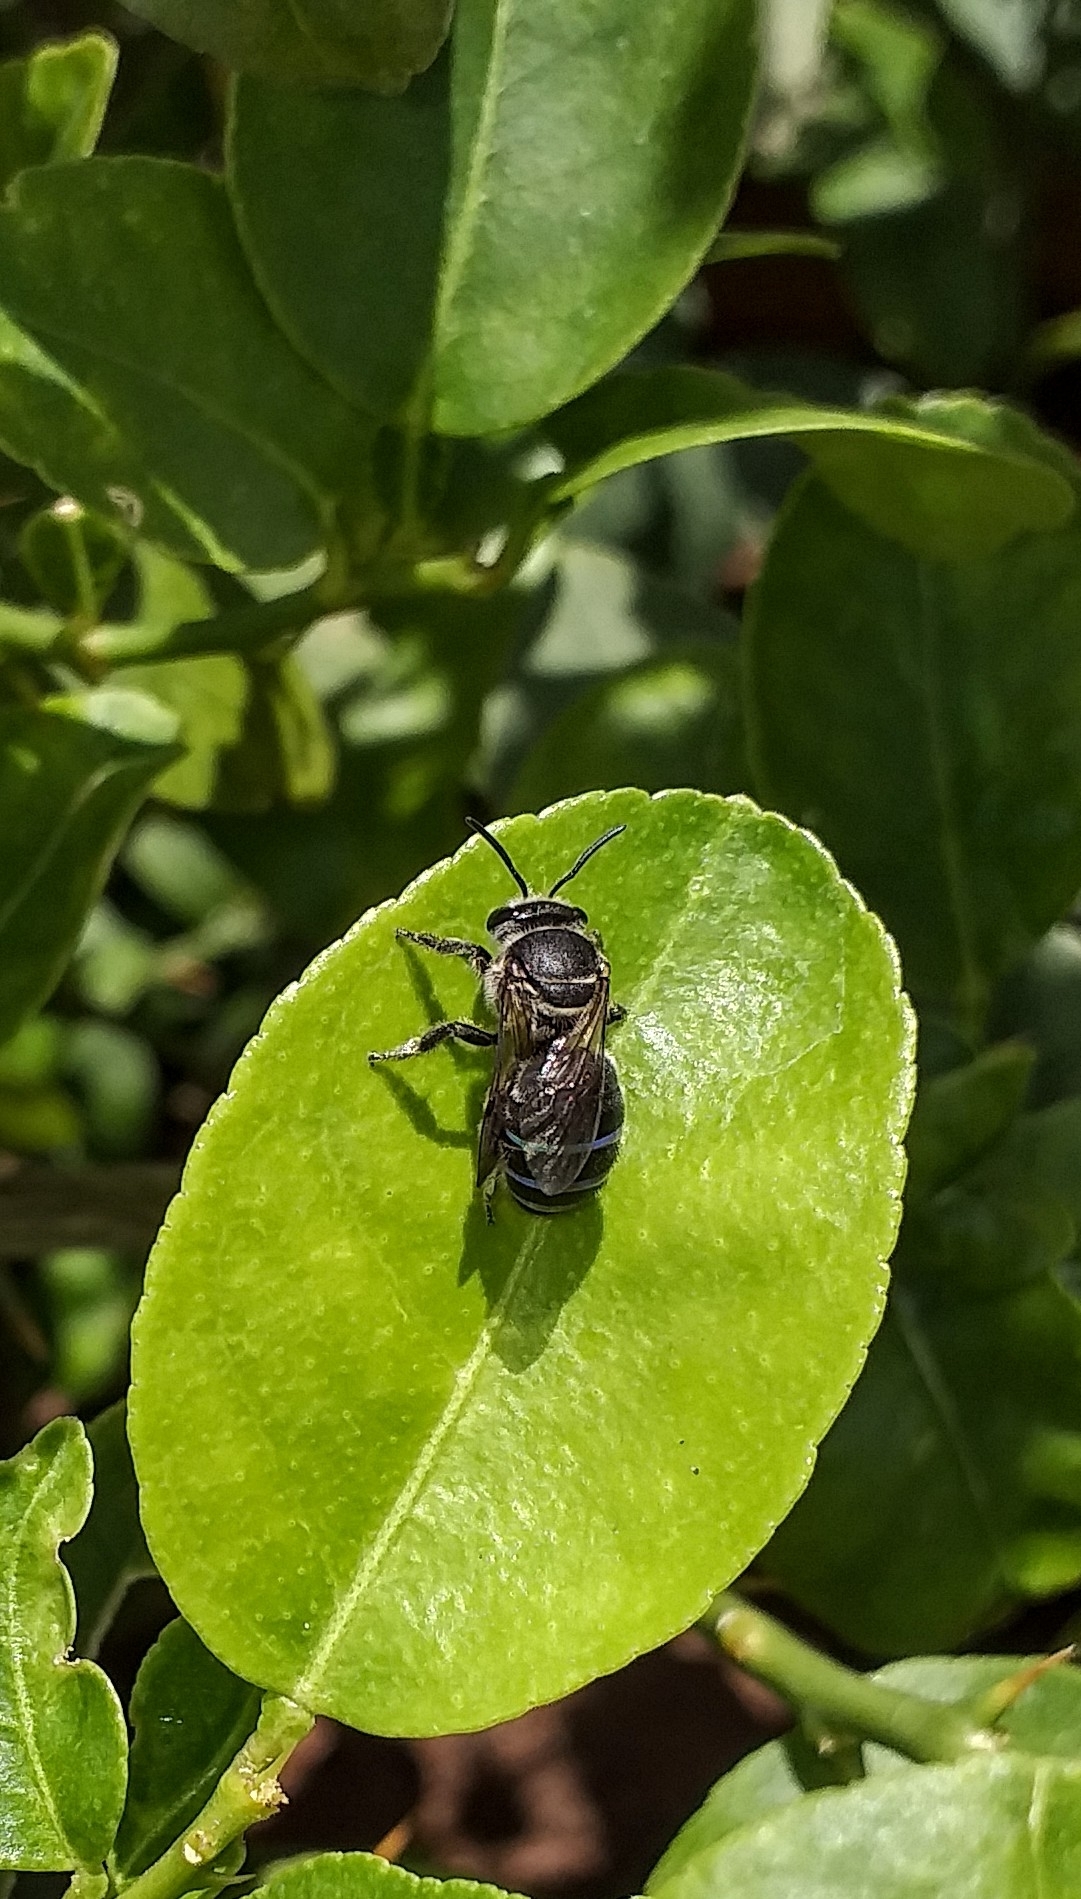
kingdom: Animalia
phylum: Arthropoda
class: Insecta
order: Hymenoptera
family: Halictidae
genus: Nomia
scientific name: Nomia iridescens
